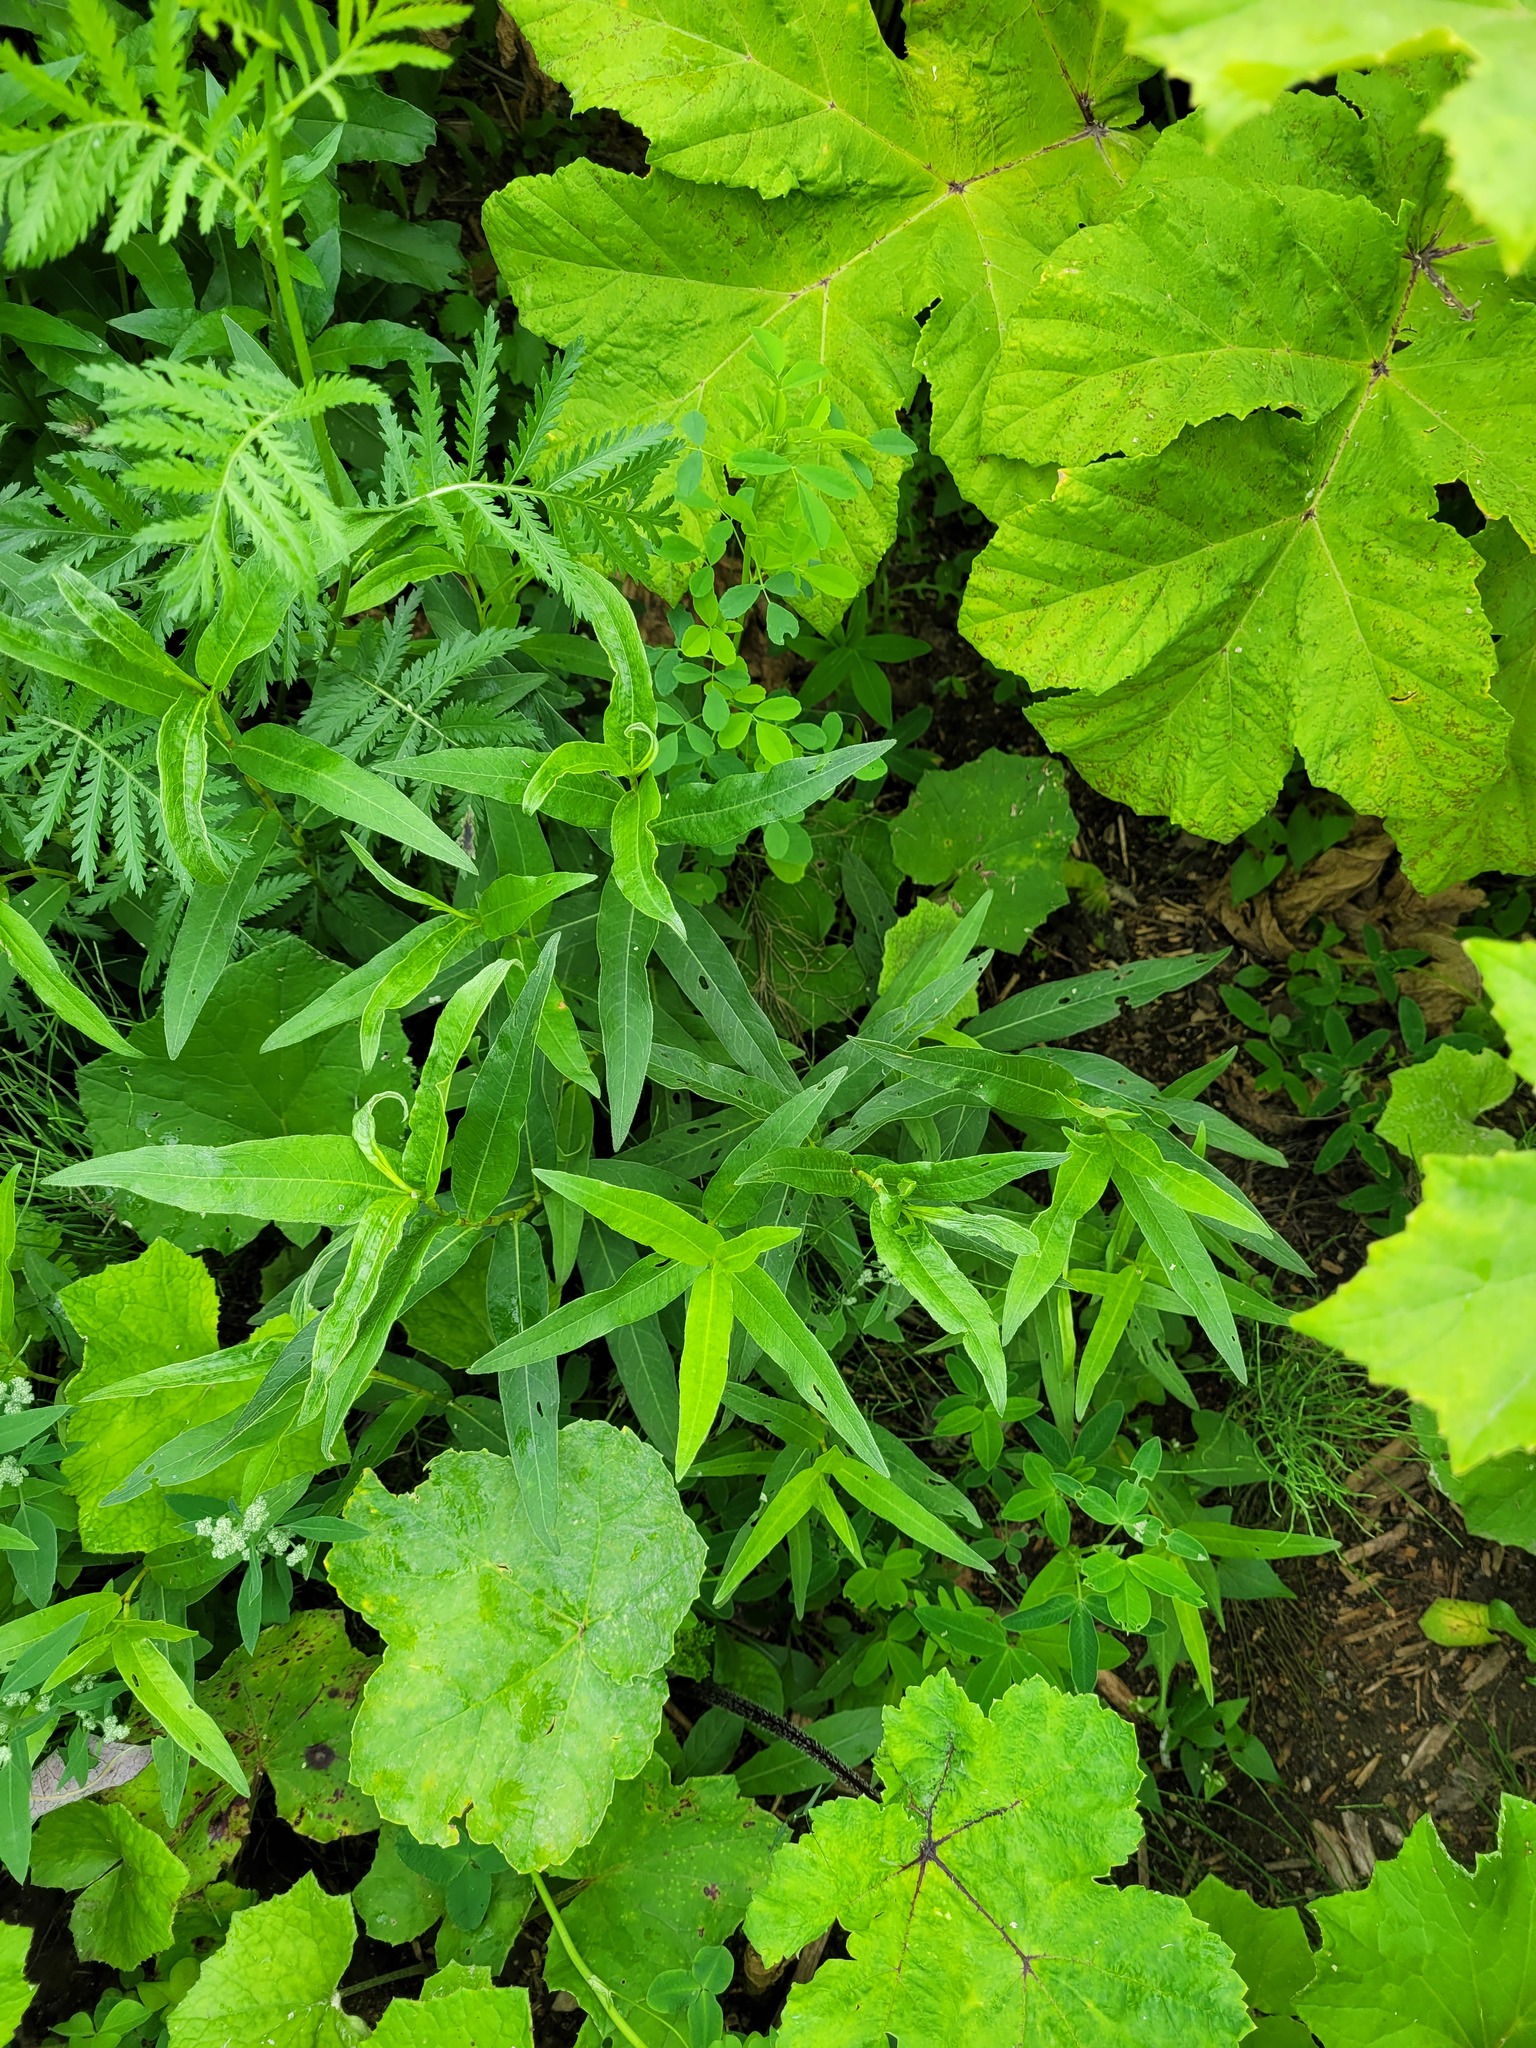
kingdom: Plantae
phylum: Tracheophyta
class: Magnoliopsida
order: Caryophyllales
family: Polygonaceae
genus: Persicaria
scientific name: Persicaria amphibia
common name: Amphibious bistort
